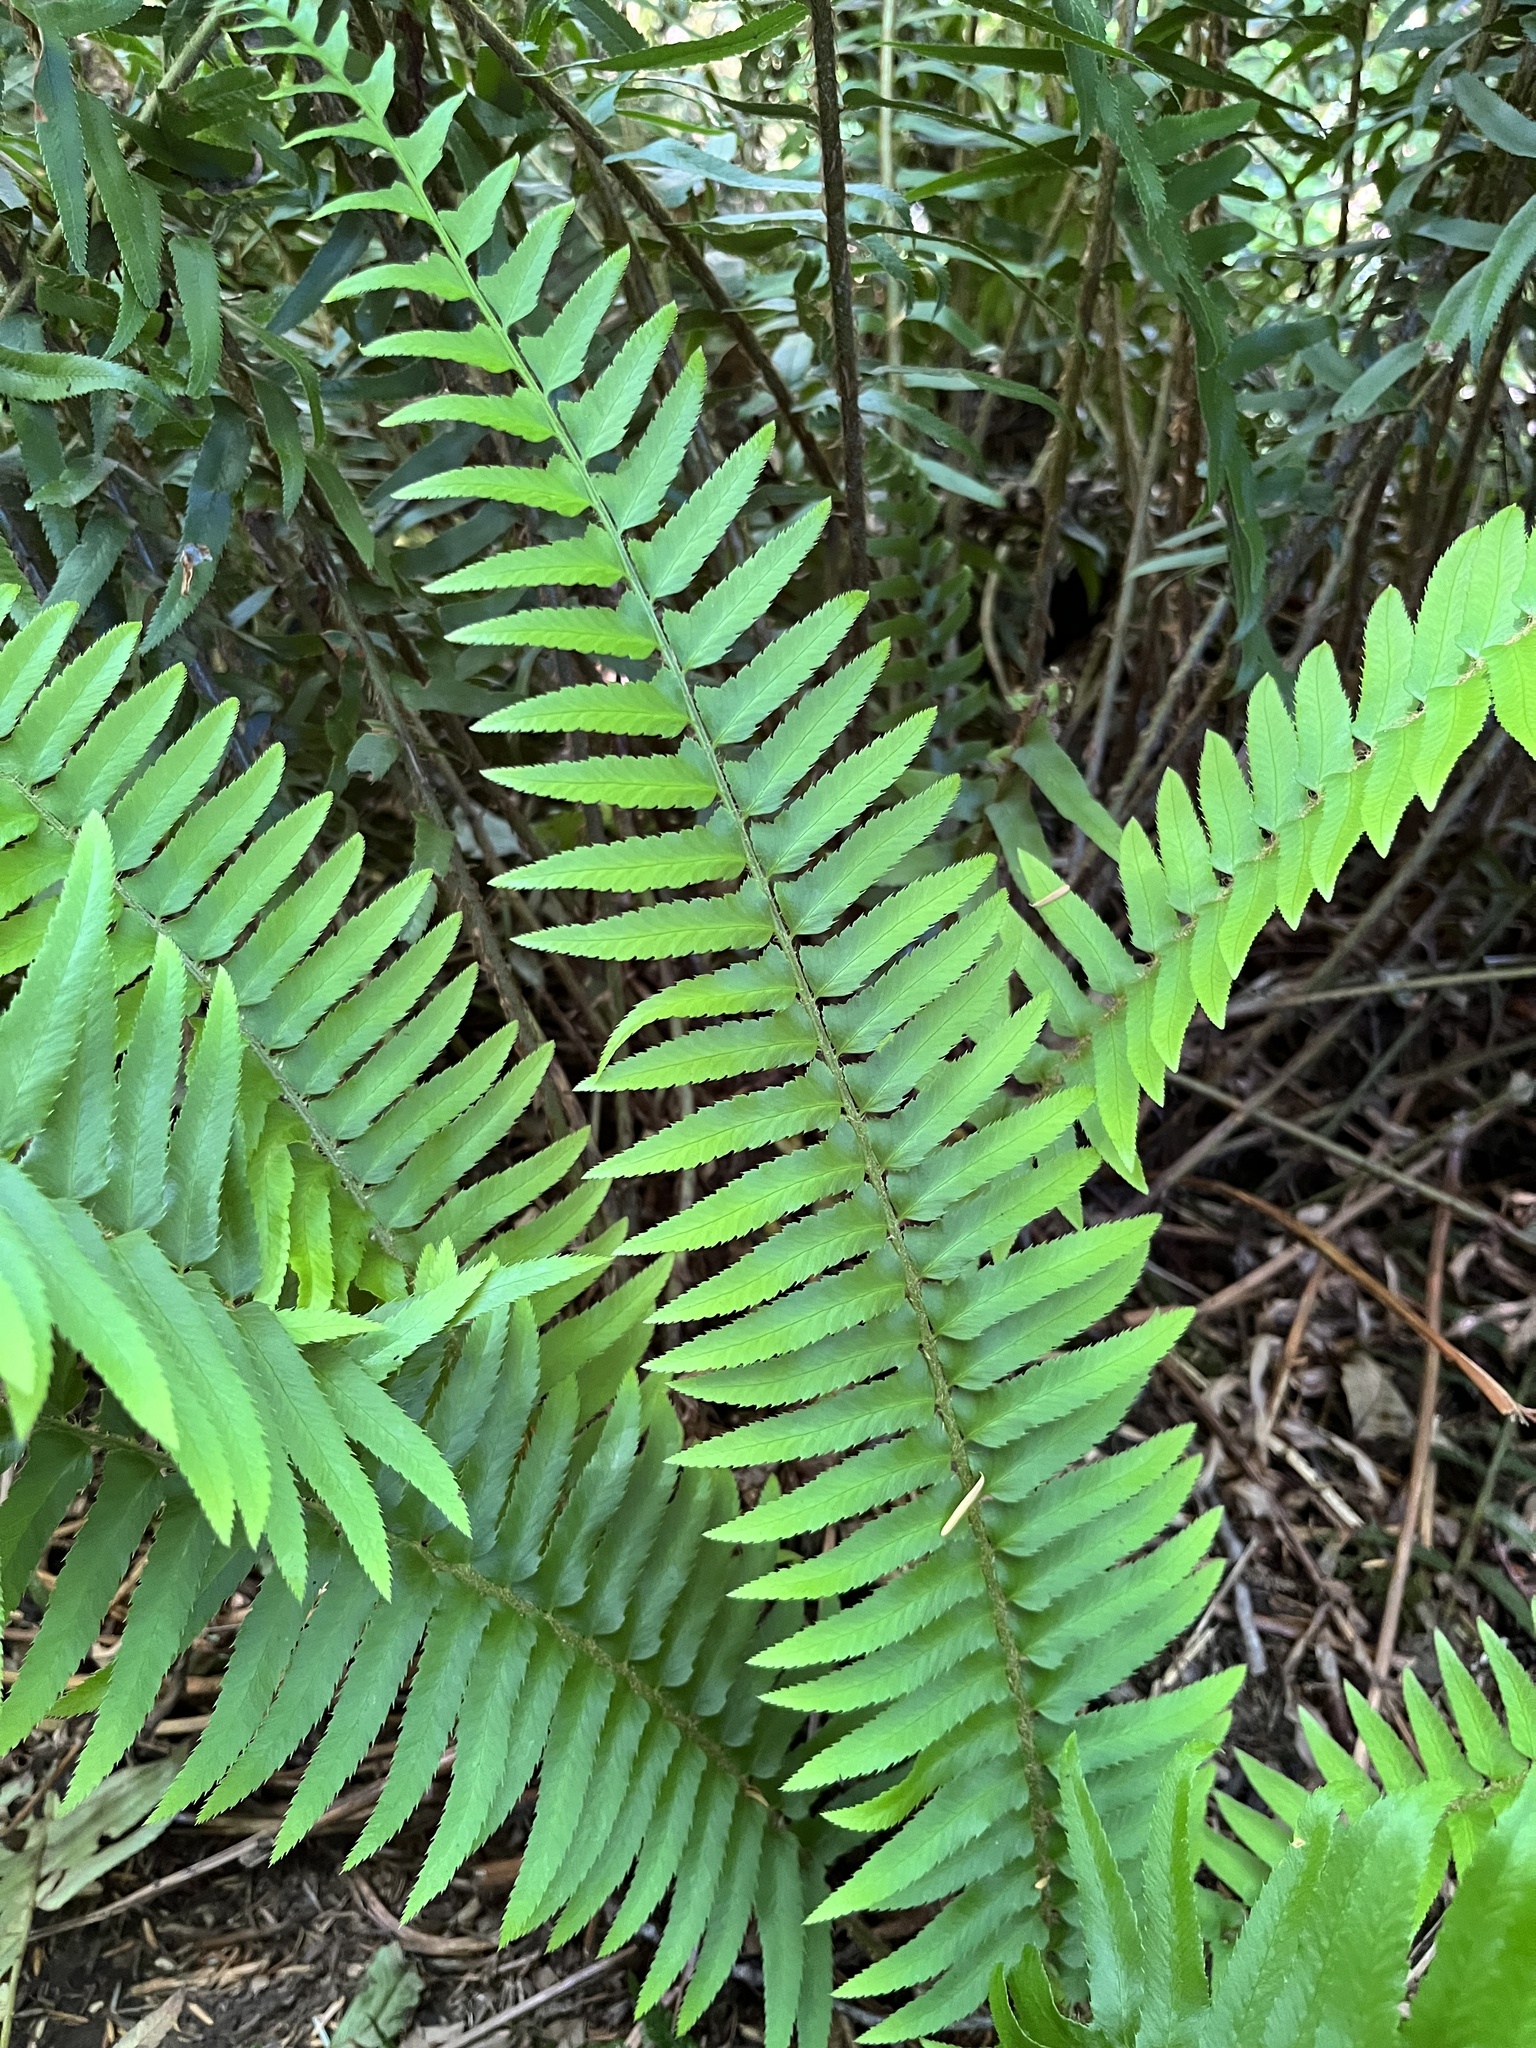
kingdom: Plantae
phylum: Tracheophyta
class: Polypodiopsida
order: Polypodiales
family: Dryopteridaceae
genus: Polystichum
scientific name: Polystichum munitum
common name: Western sword-fern
